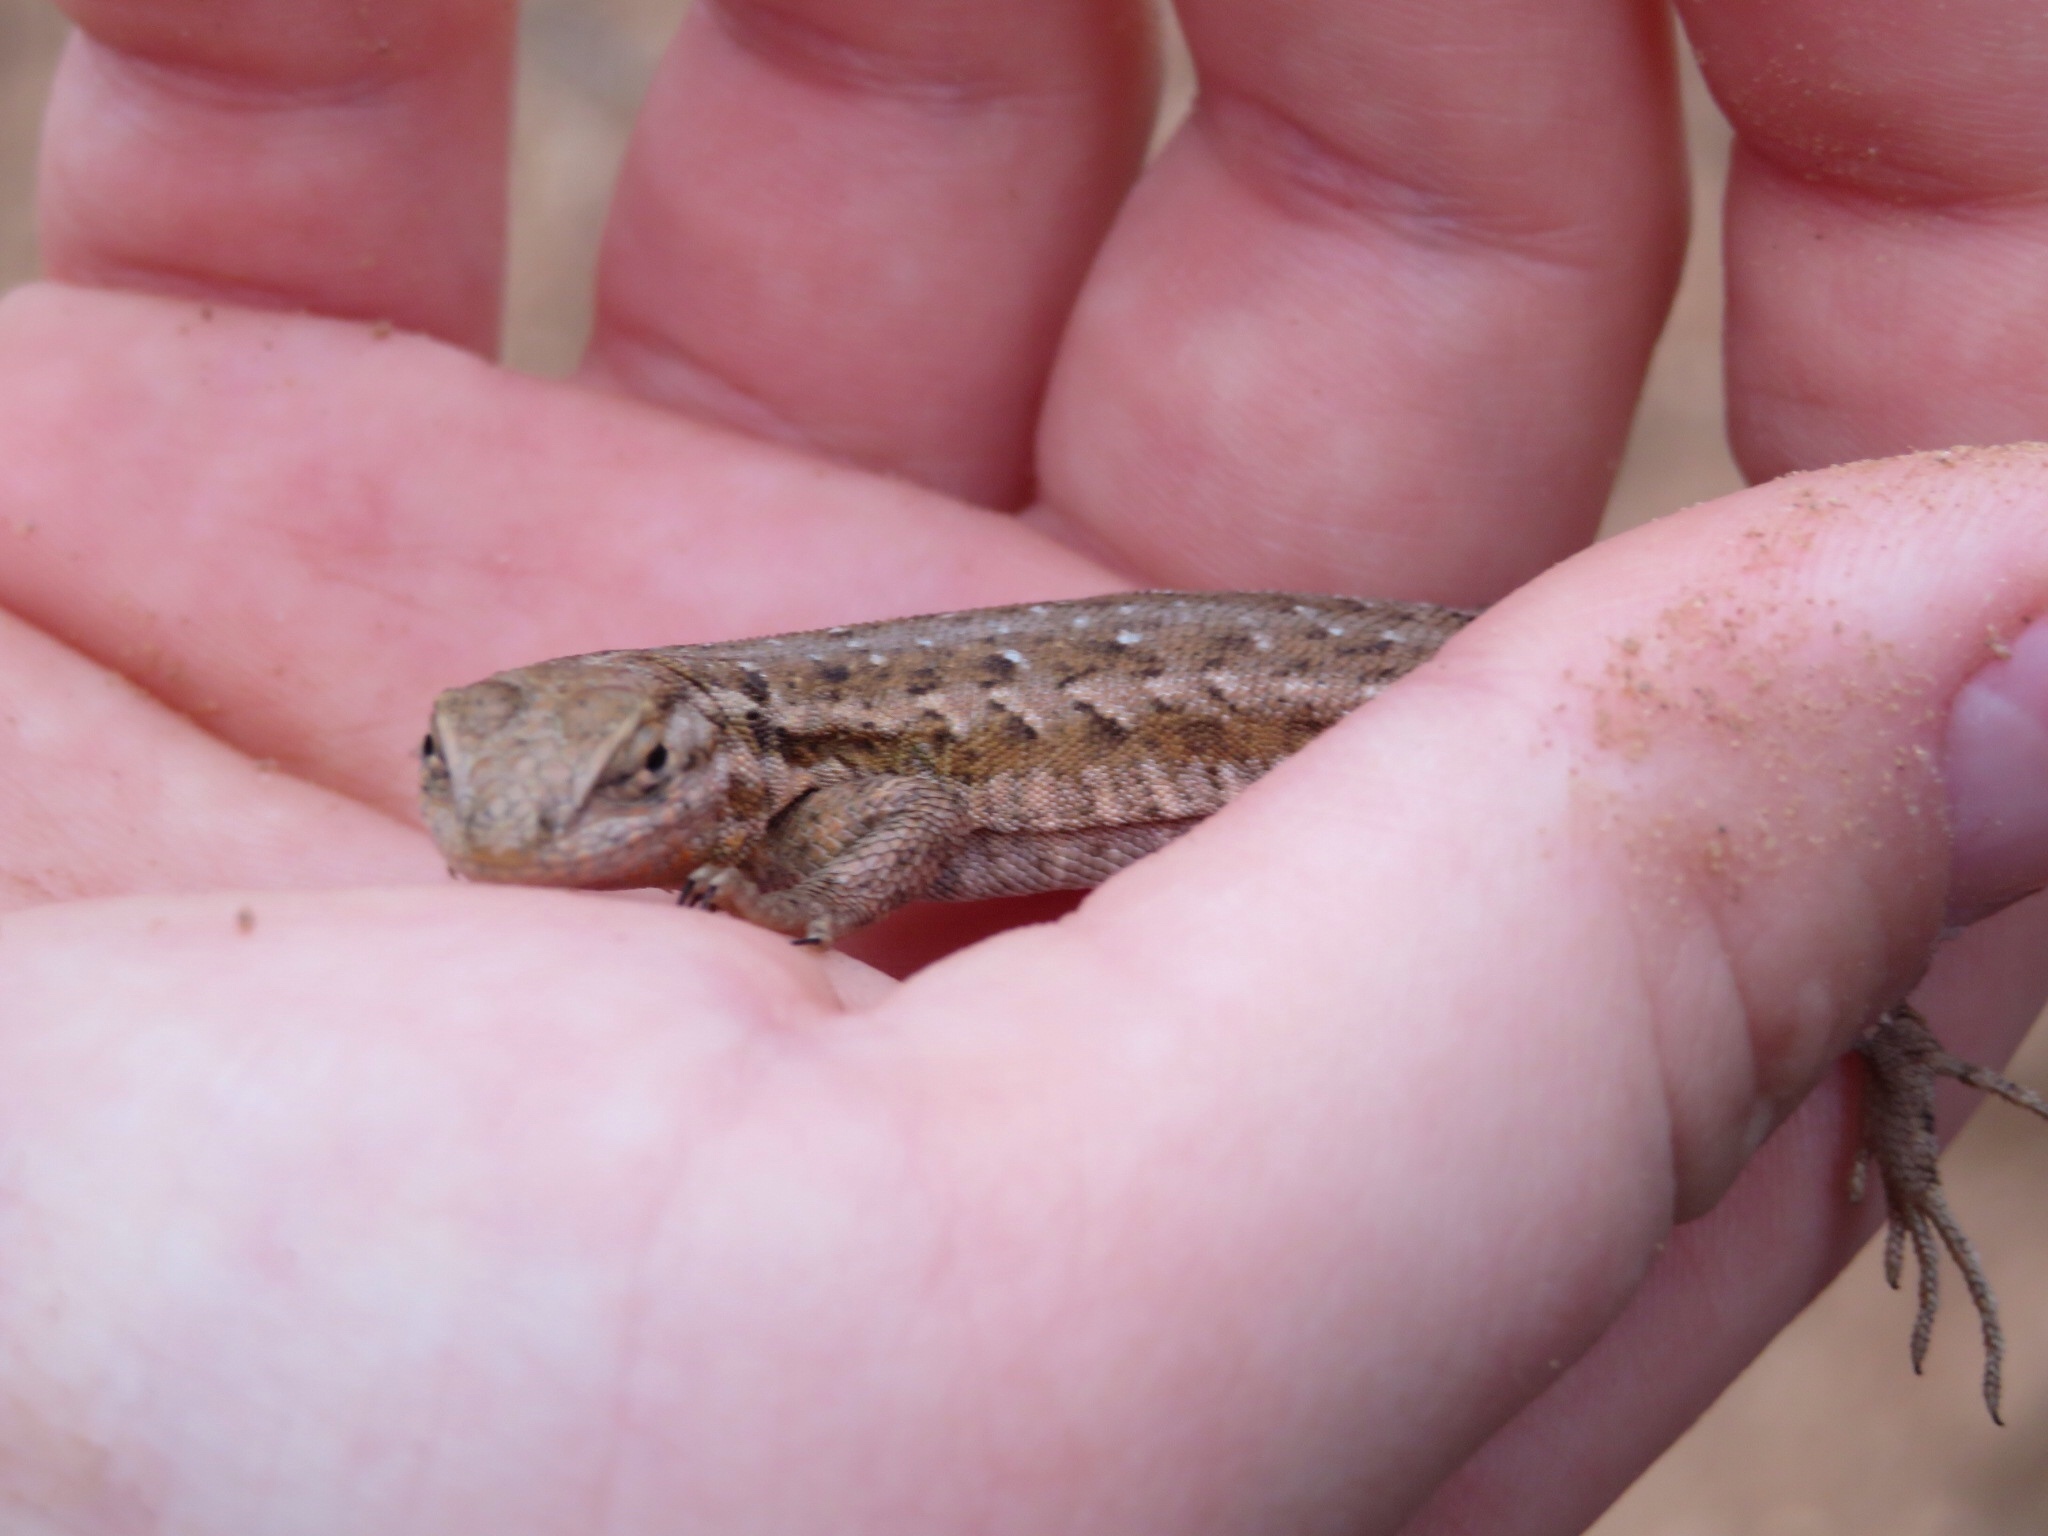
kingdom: Animalia
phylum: Chordata
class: Squamata
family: Phrynosomatidae
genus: Uta
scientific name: Uta stansburiana
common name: Side-blotched lizard
